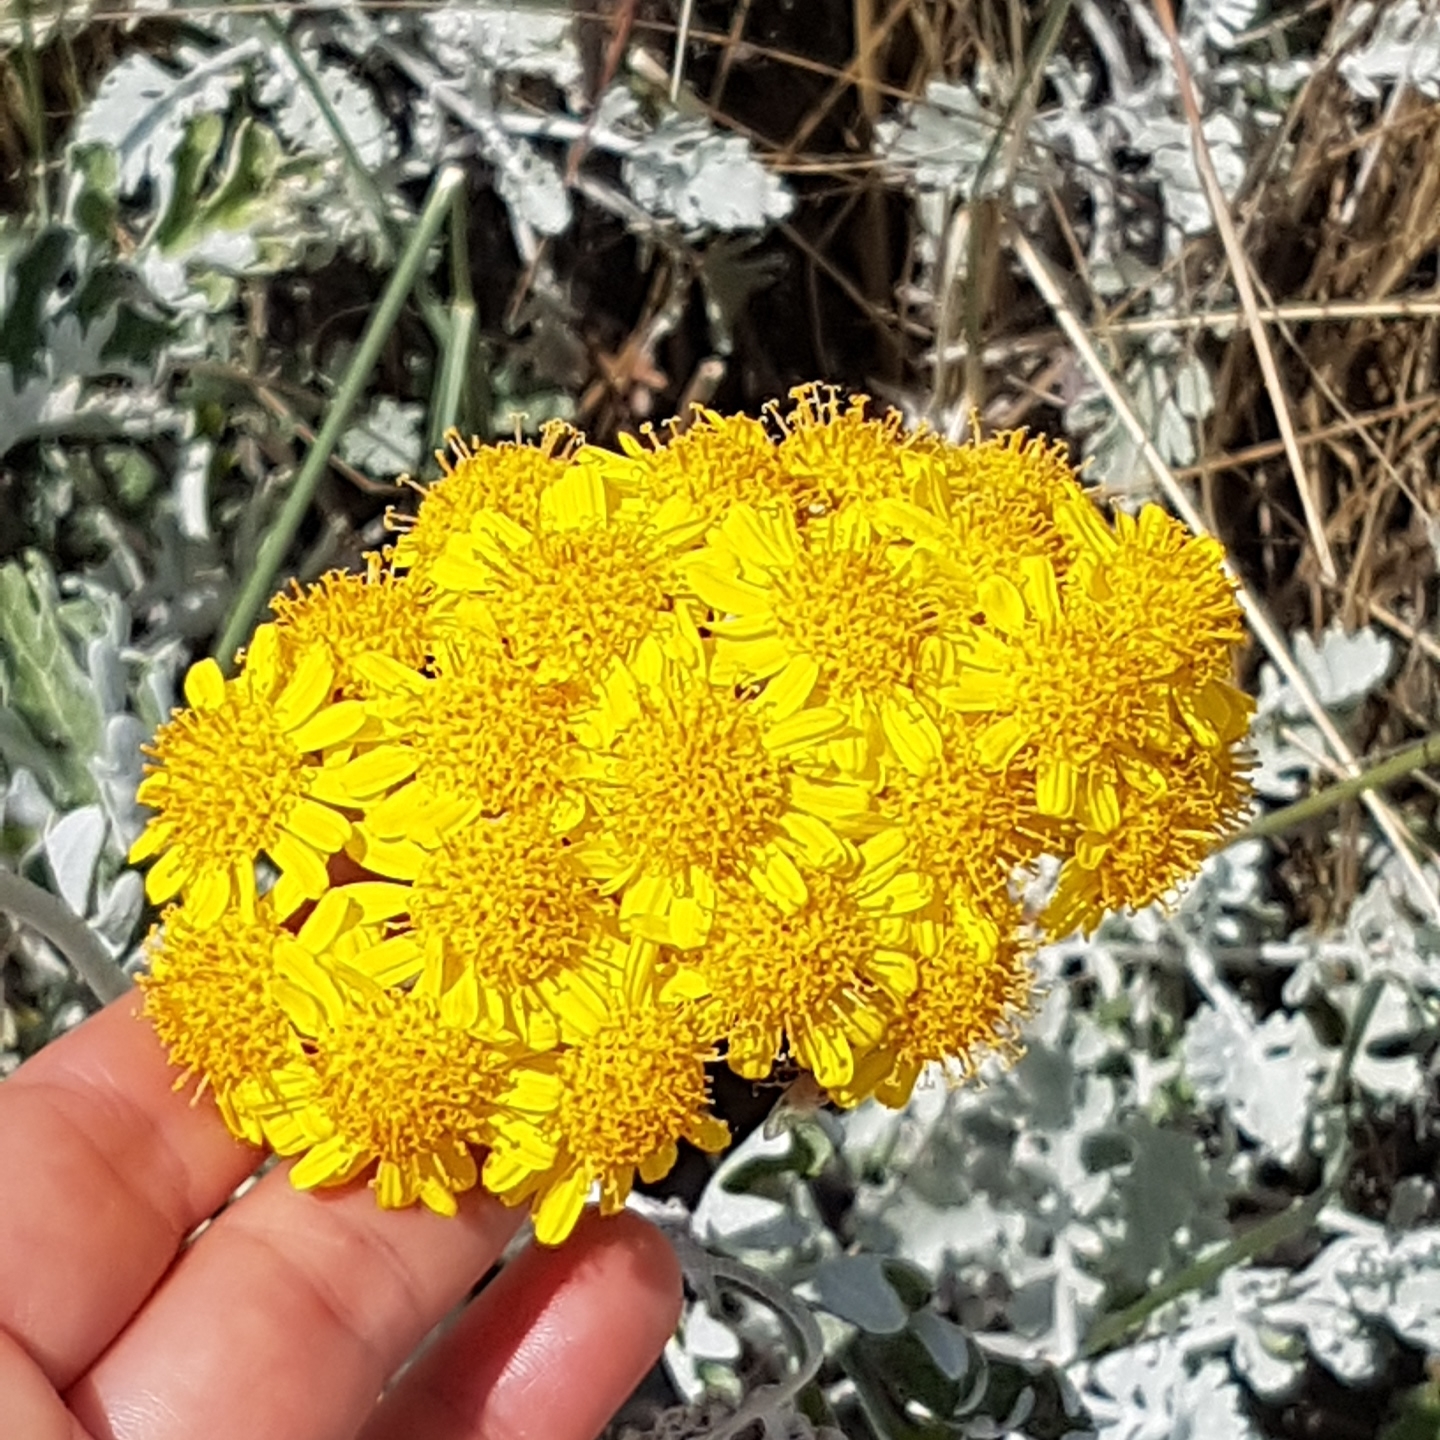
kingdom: Plantae
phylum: Tracheophyta
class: Magnoliopsida
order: Asterales
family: Asteraceae
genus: Jacobaea
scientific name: Jacobaea maritima
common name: Silver ragwort
